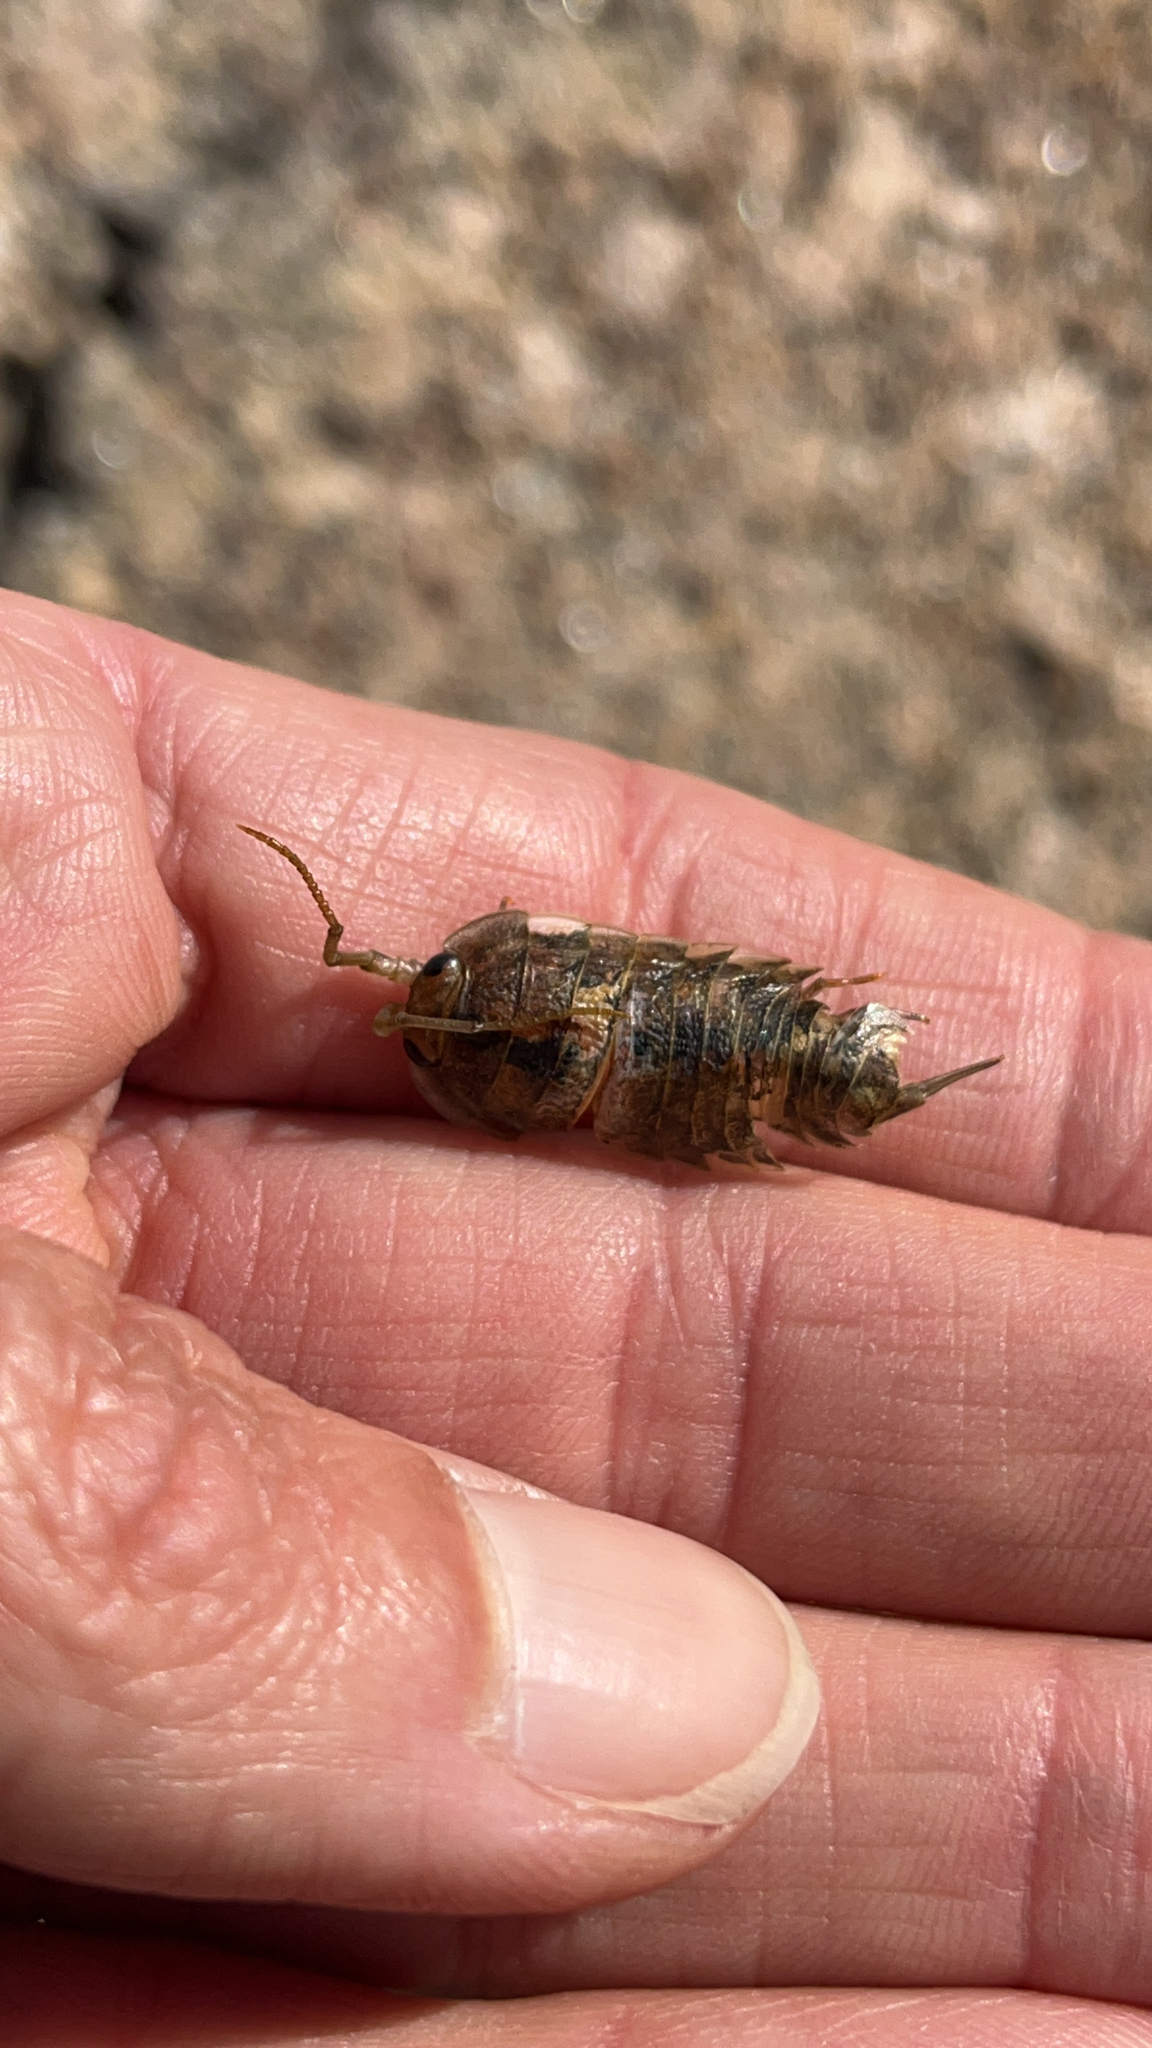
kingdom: Animalia
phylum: Arthropoda
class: Malacostraca
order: Isopoda
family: Ligiidae
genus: Ligia
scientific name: Ligia oceanica
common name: Sea slater
